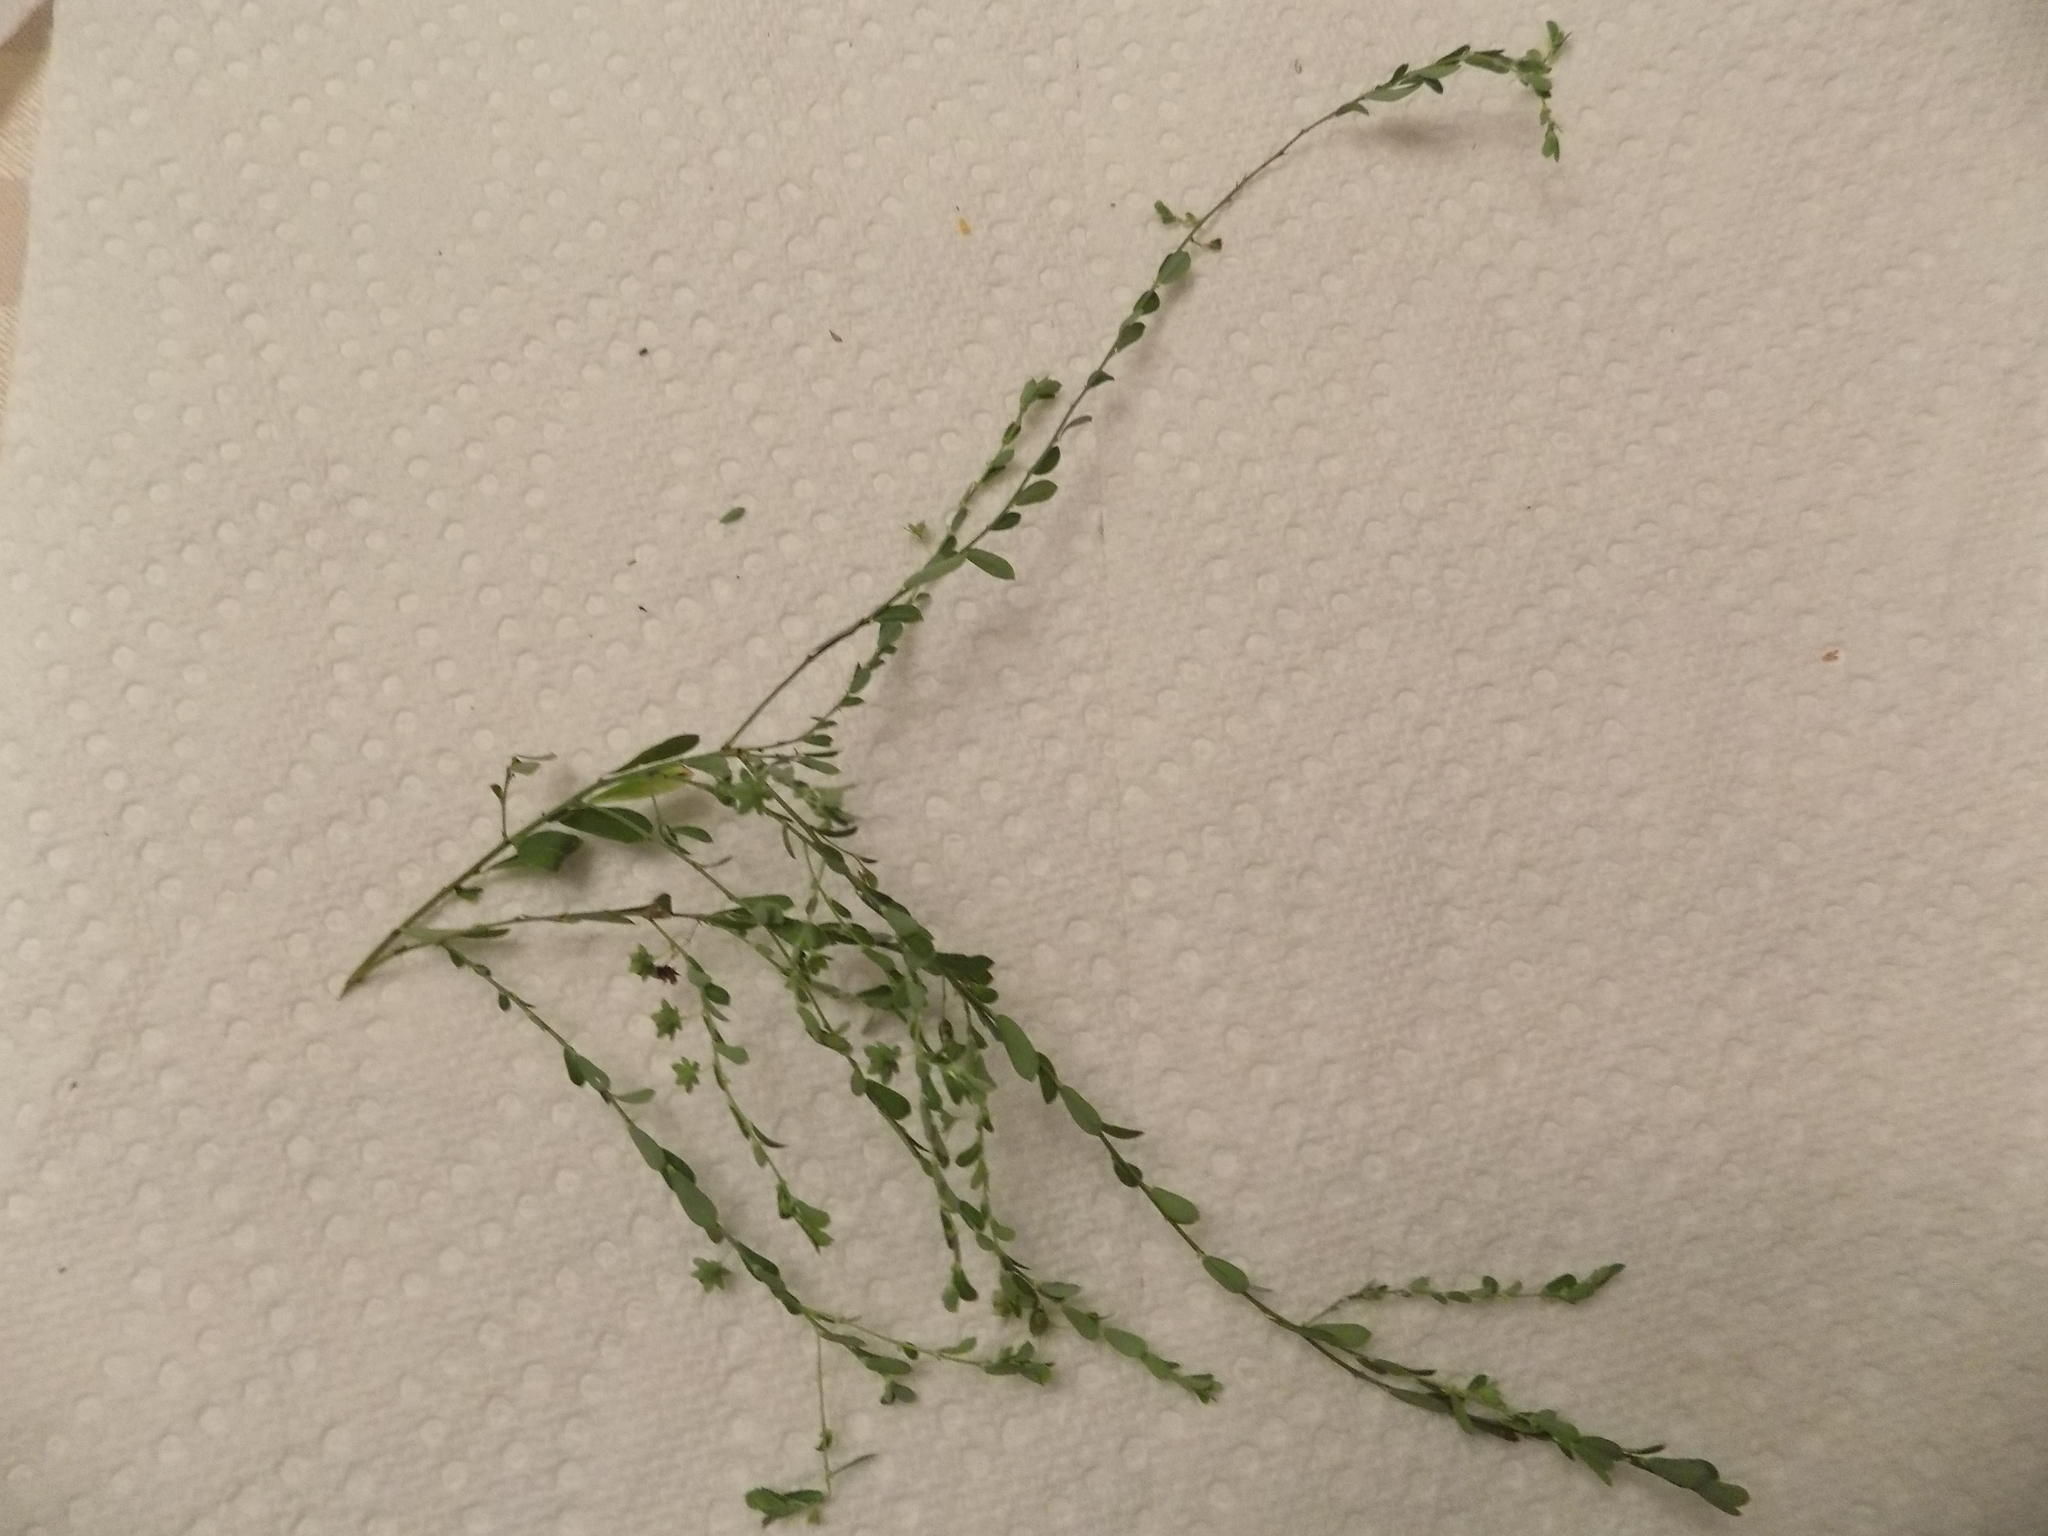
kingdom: Plantae
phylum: Tracheophyta
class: Magnoliopsida
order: Malpighiales
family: Phyllanthaceae
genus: Phyllanthus
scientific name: Phyllanthus polygonoides
